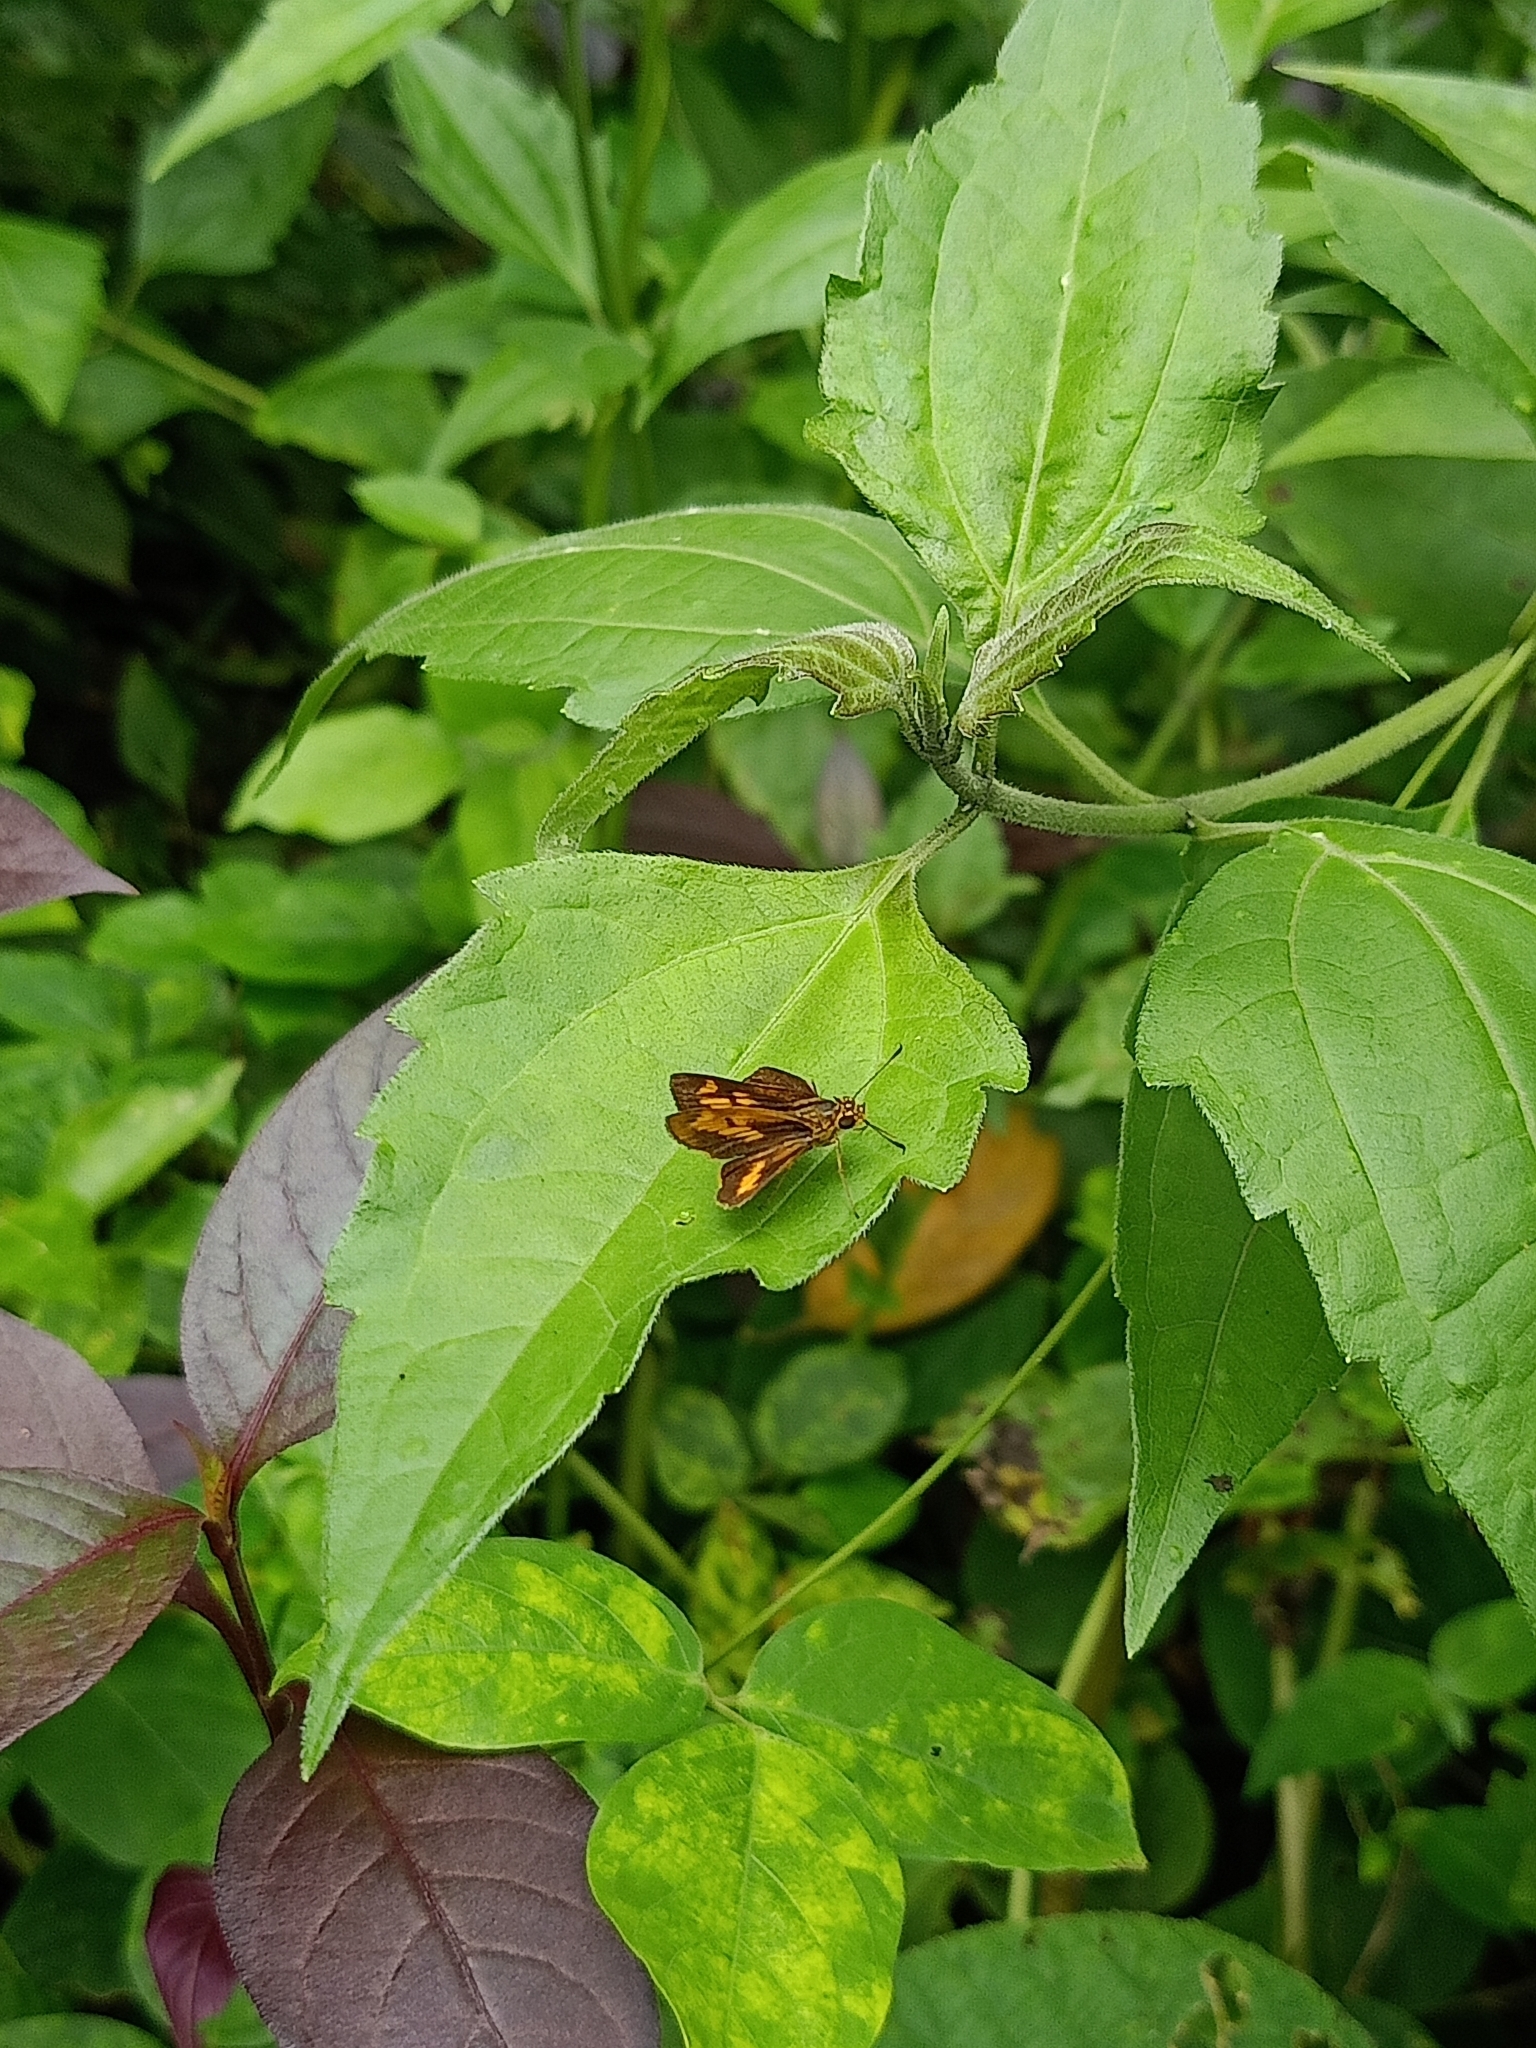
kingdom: Animalia
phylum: Arthropoda
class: Insecta
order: Lepidoptera
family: Hesperiidae
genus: Oriens
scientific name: Oriens goloides
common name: Smaller dartlet
